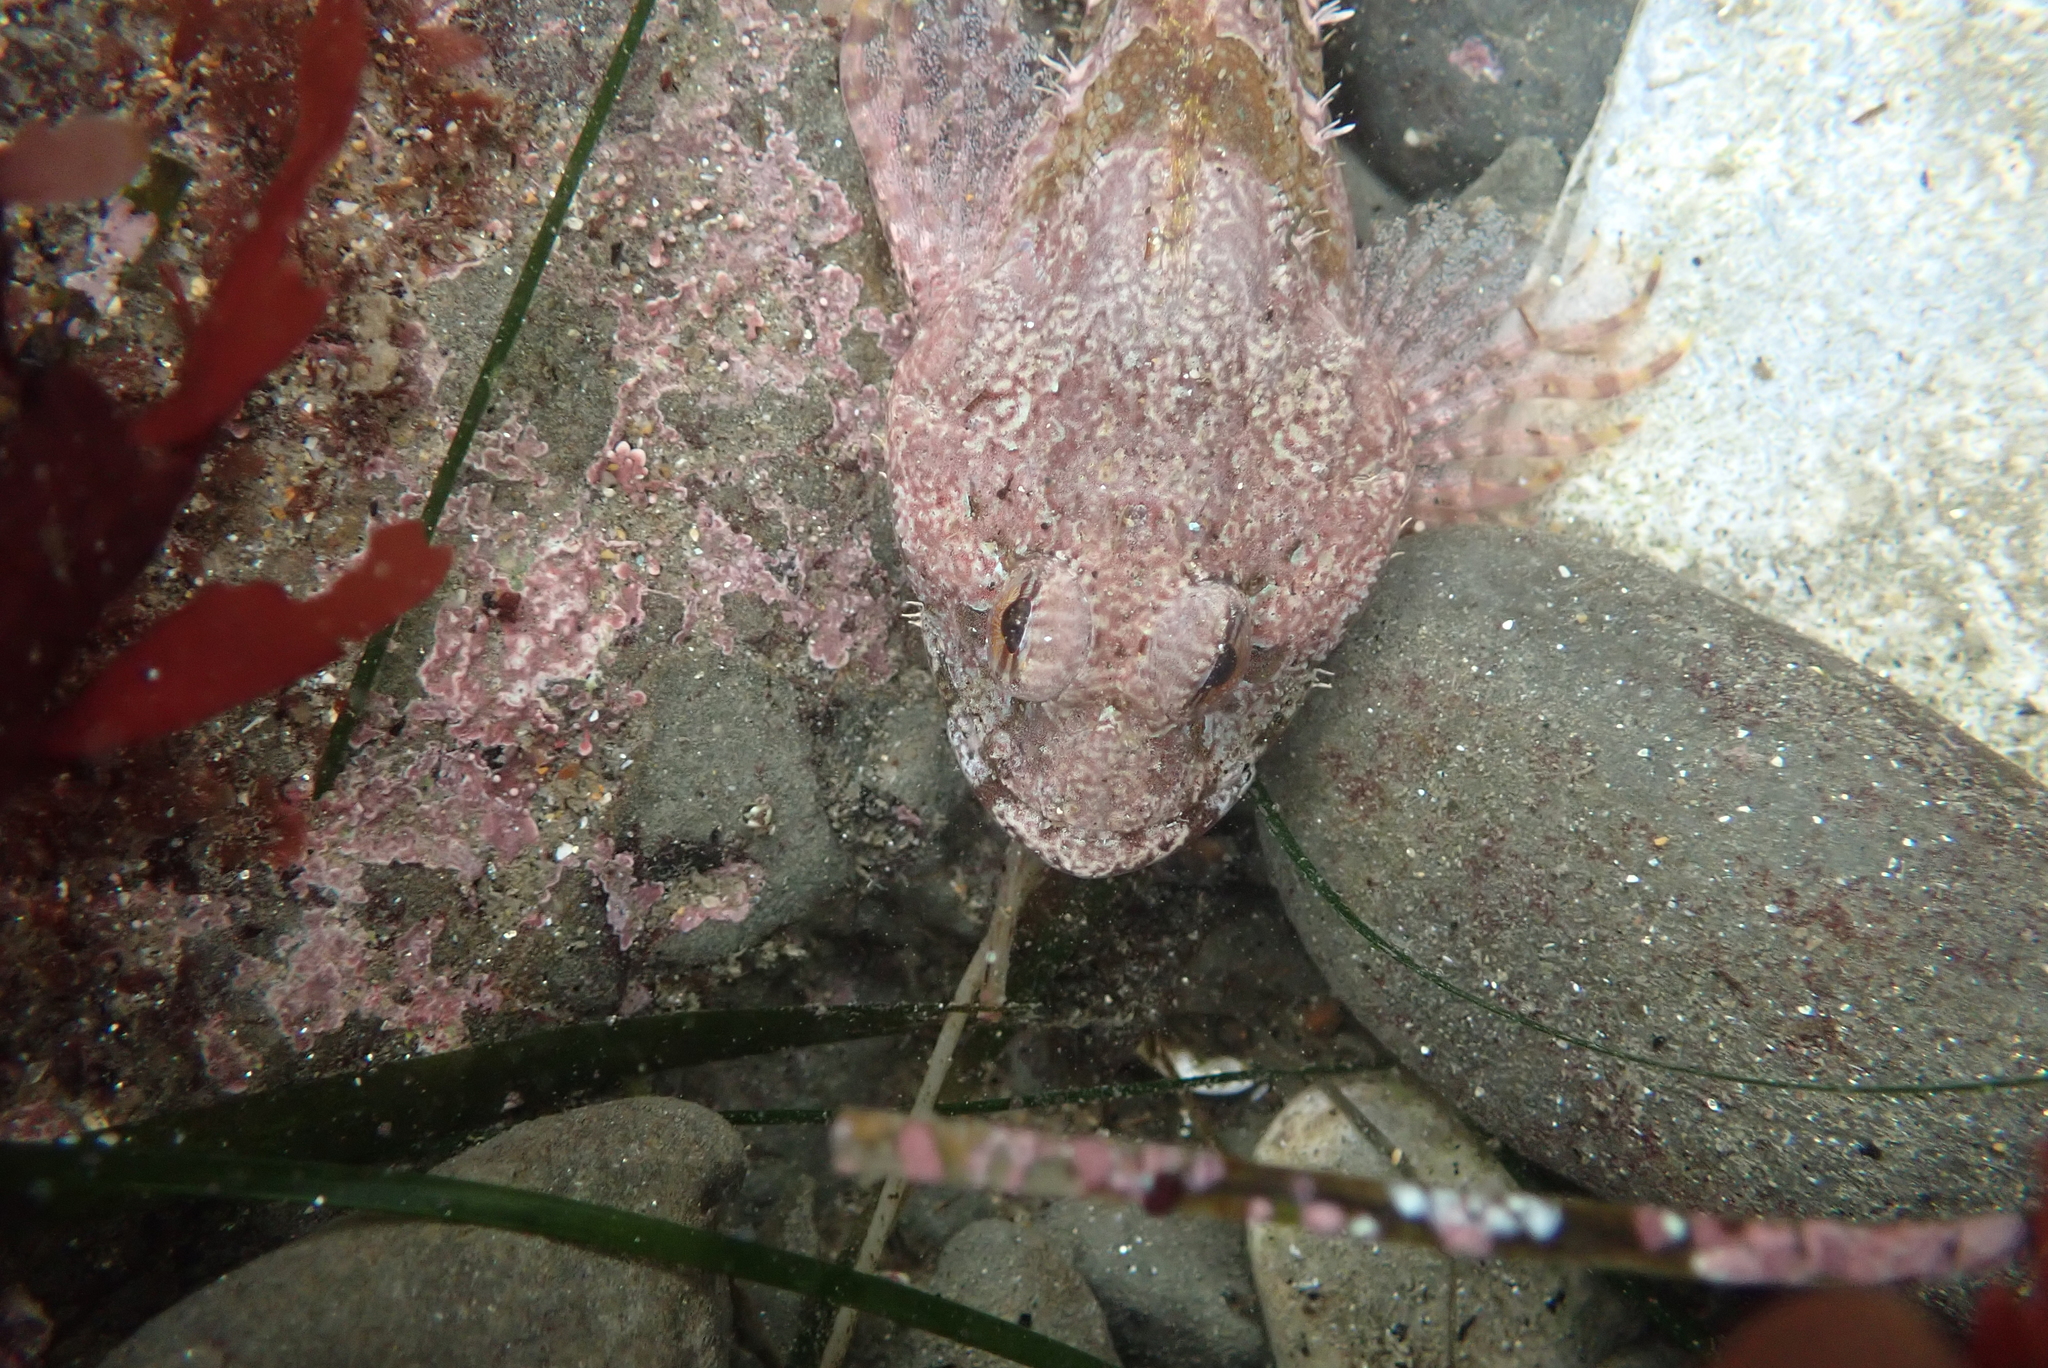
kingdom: Animalia
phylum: Chordata
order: Scorpaeniformes
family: Cottidae
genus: Artedius
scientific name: Artedius lateralis
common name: Smooth-head sculpin
